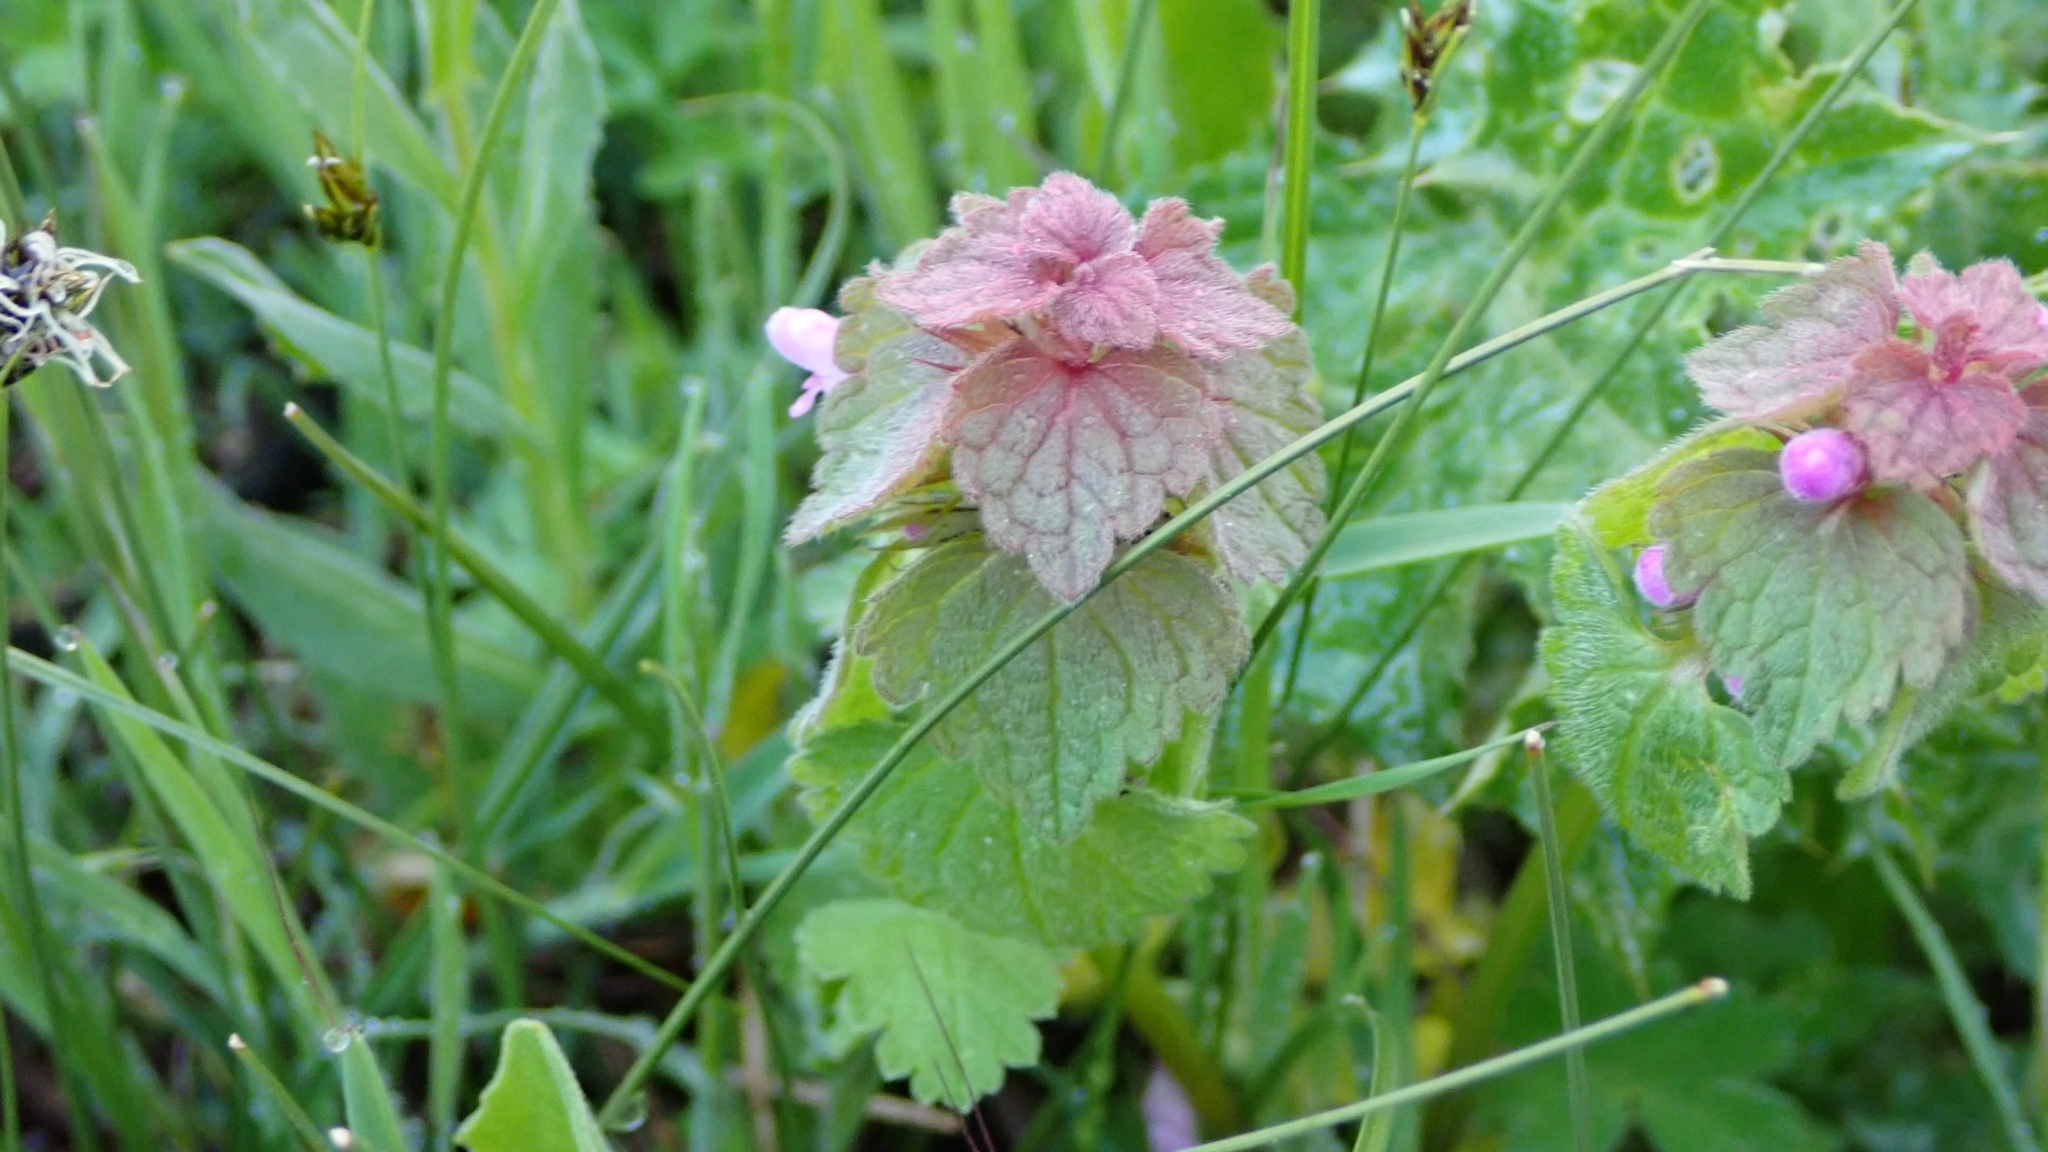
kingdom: Plantae
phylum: Tracheophyta
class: Magnoliopsida
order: Lamiales
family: Lamiaceae
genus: Lamium
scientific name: Lamium purpureum
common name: Red dead-nettle
